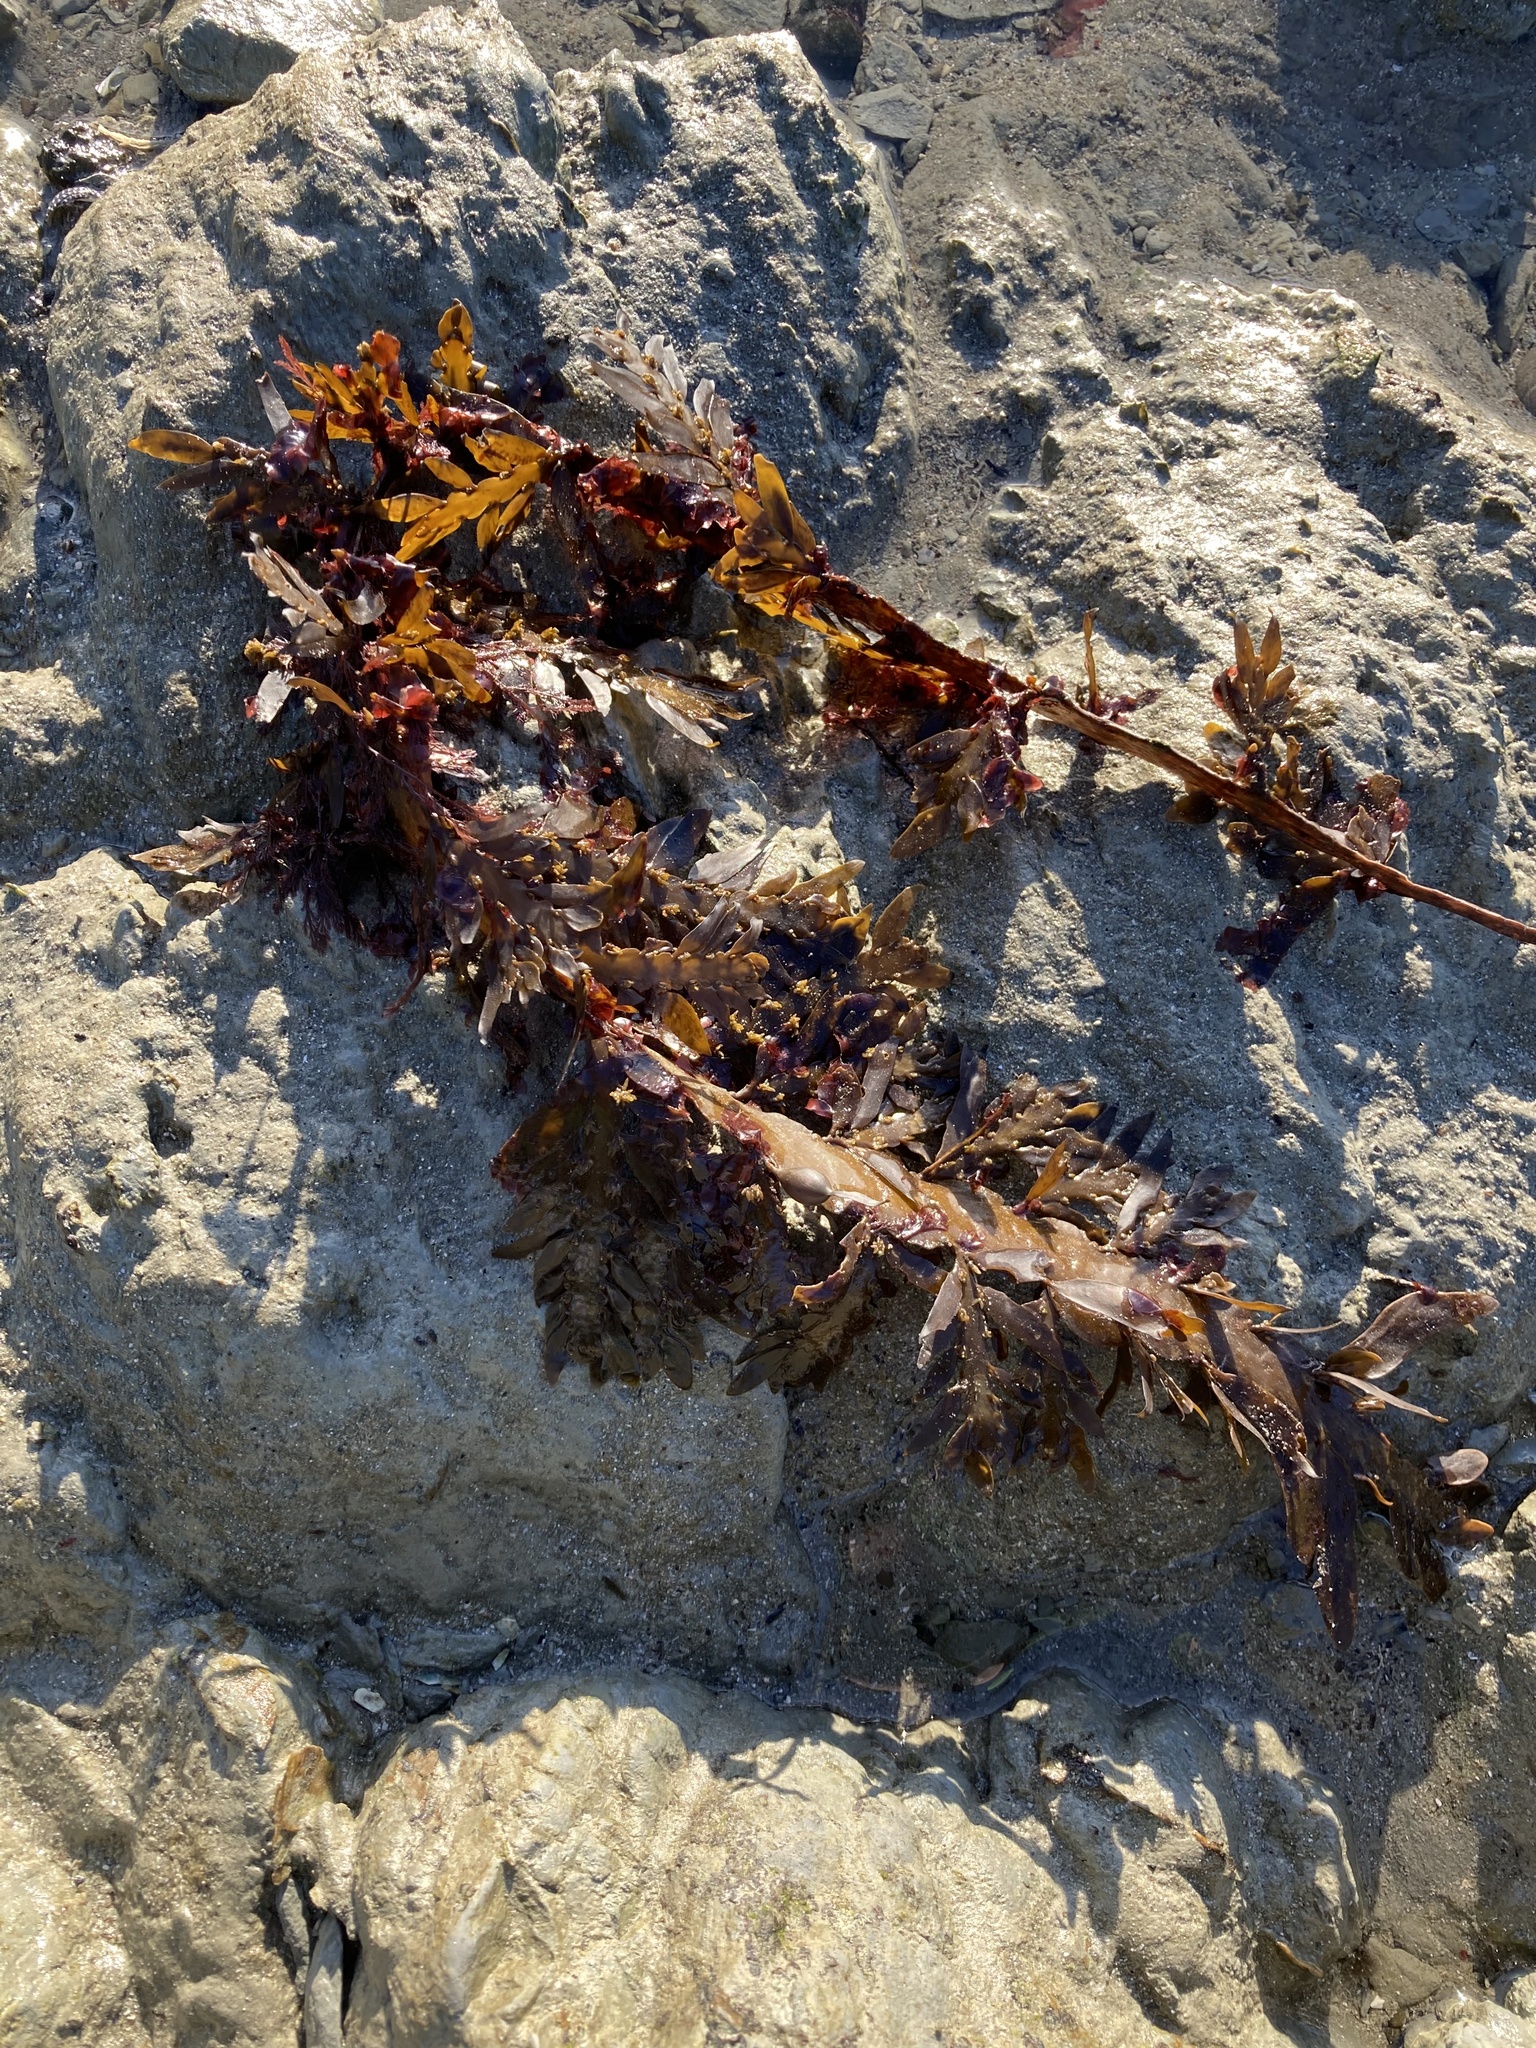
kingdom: Chromista
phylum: Ochrophyta
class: Phaeophyceae
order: Fucales
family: Sargassaceae
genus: Carpophyllum
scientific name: Carpophyllum maschalocarpum
